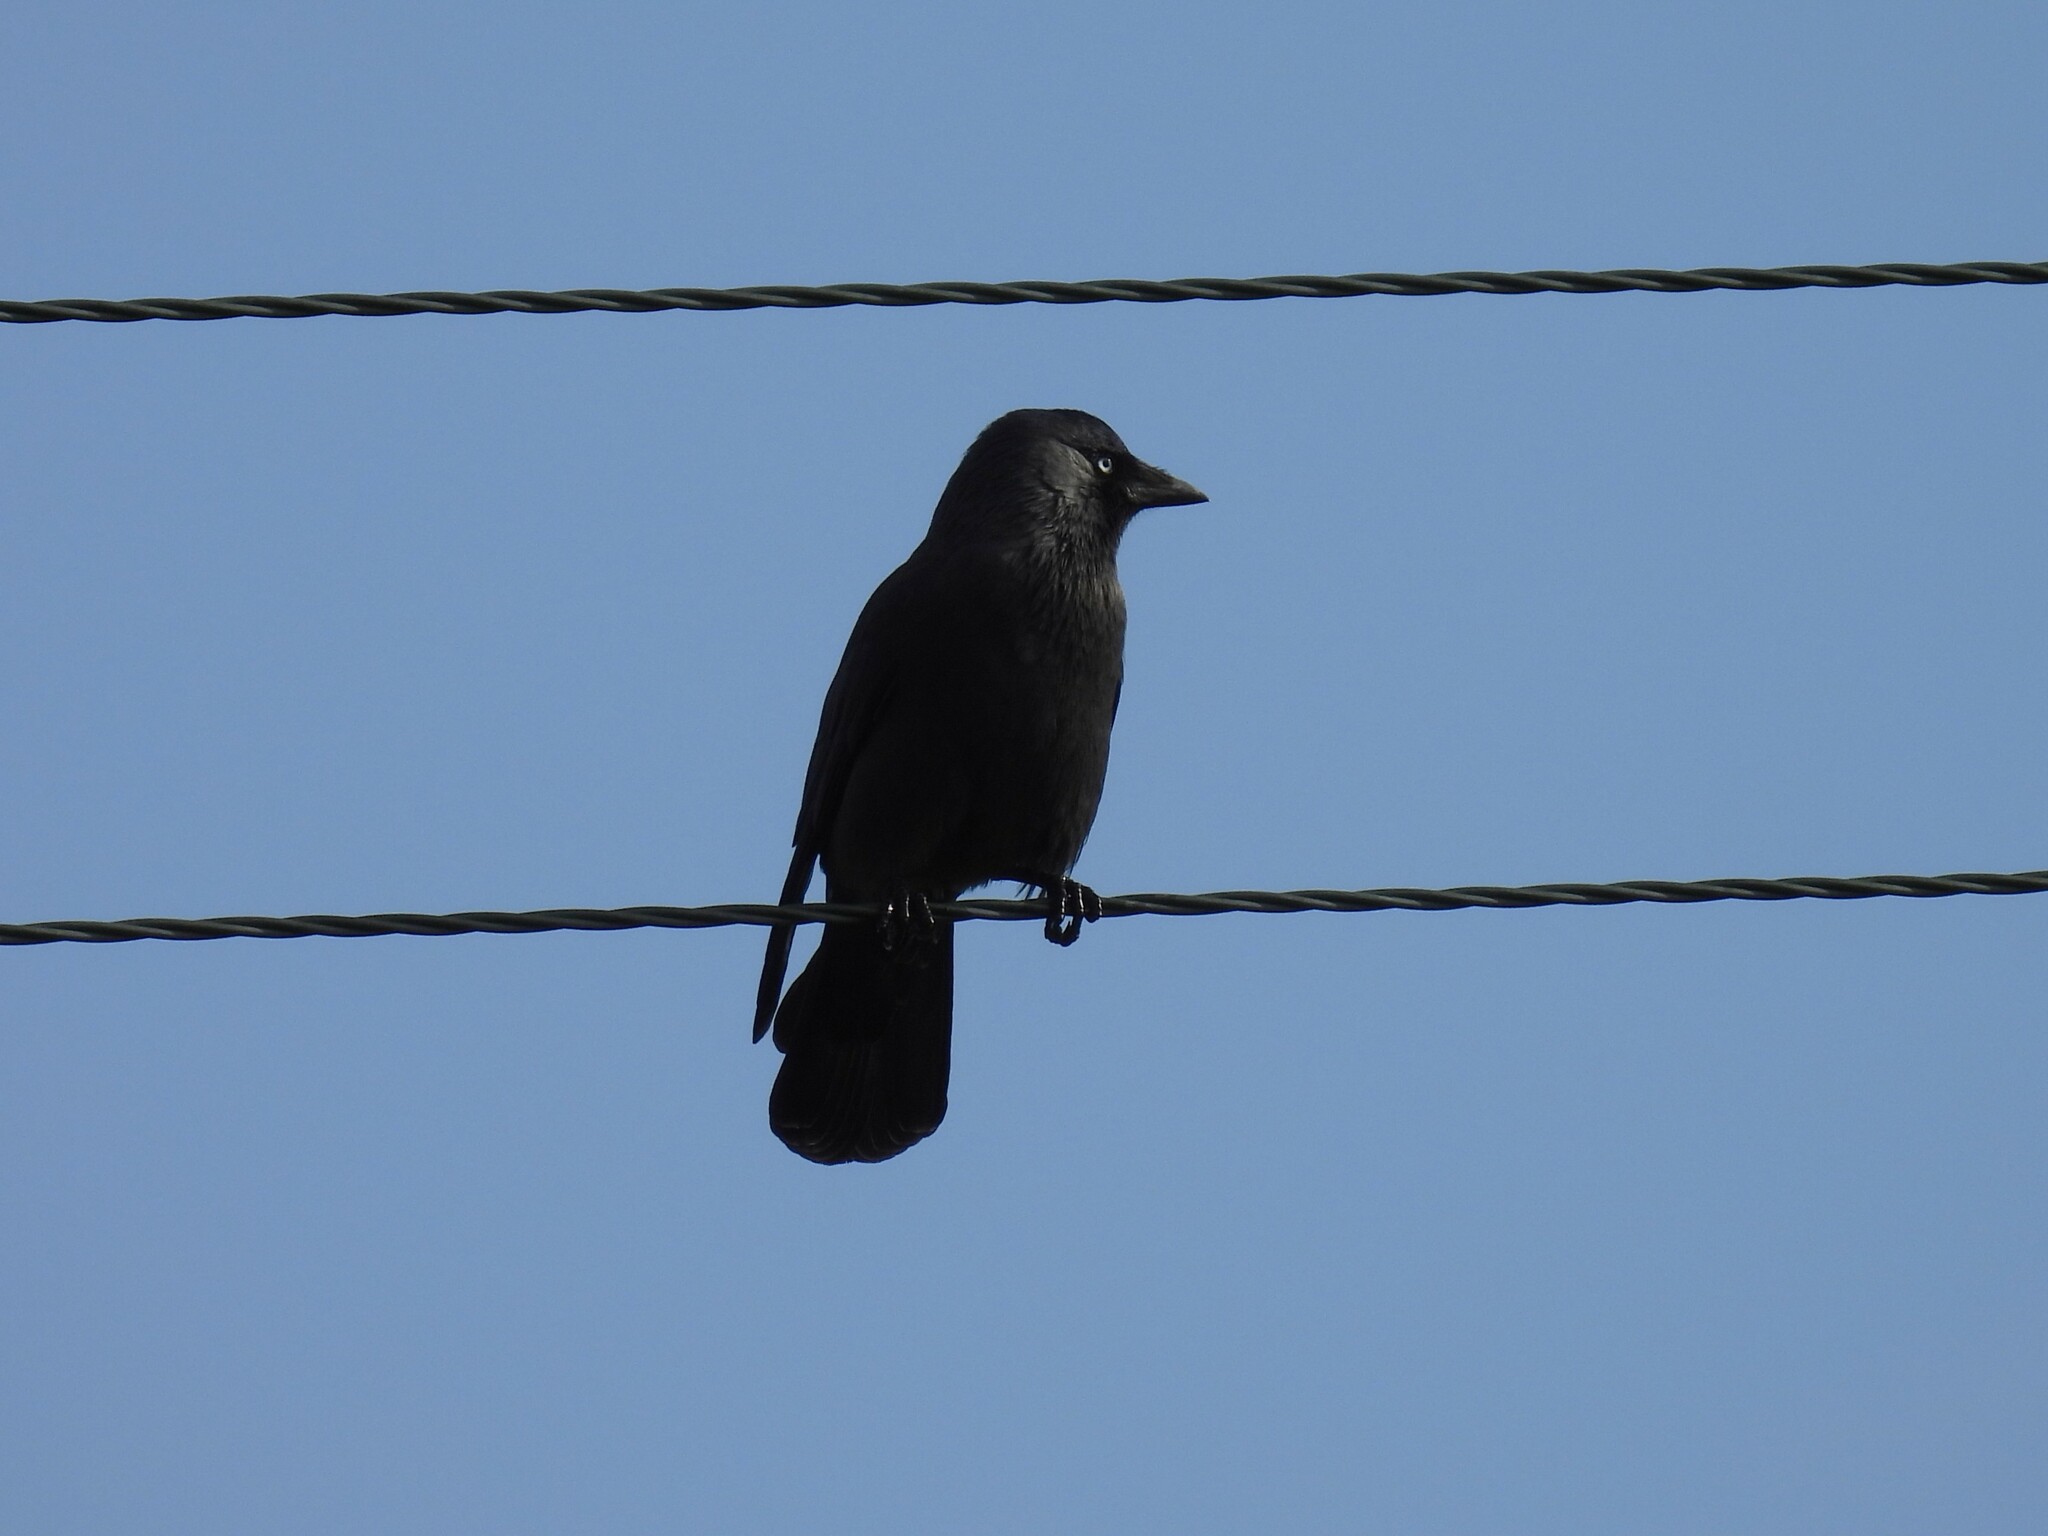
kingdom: Animalia
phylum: Chordata
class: Aves
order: Passeriformes
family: Corvidae
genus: Coloeus
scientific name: Coloeus monedula
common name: Western jackdaw
